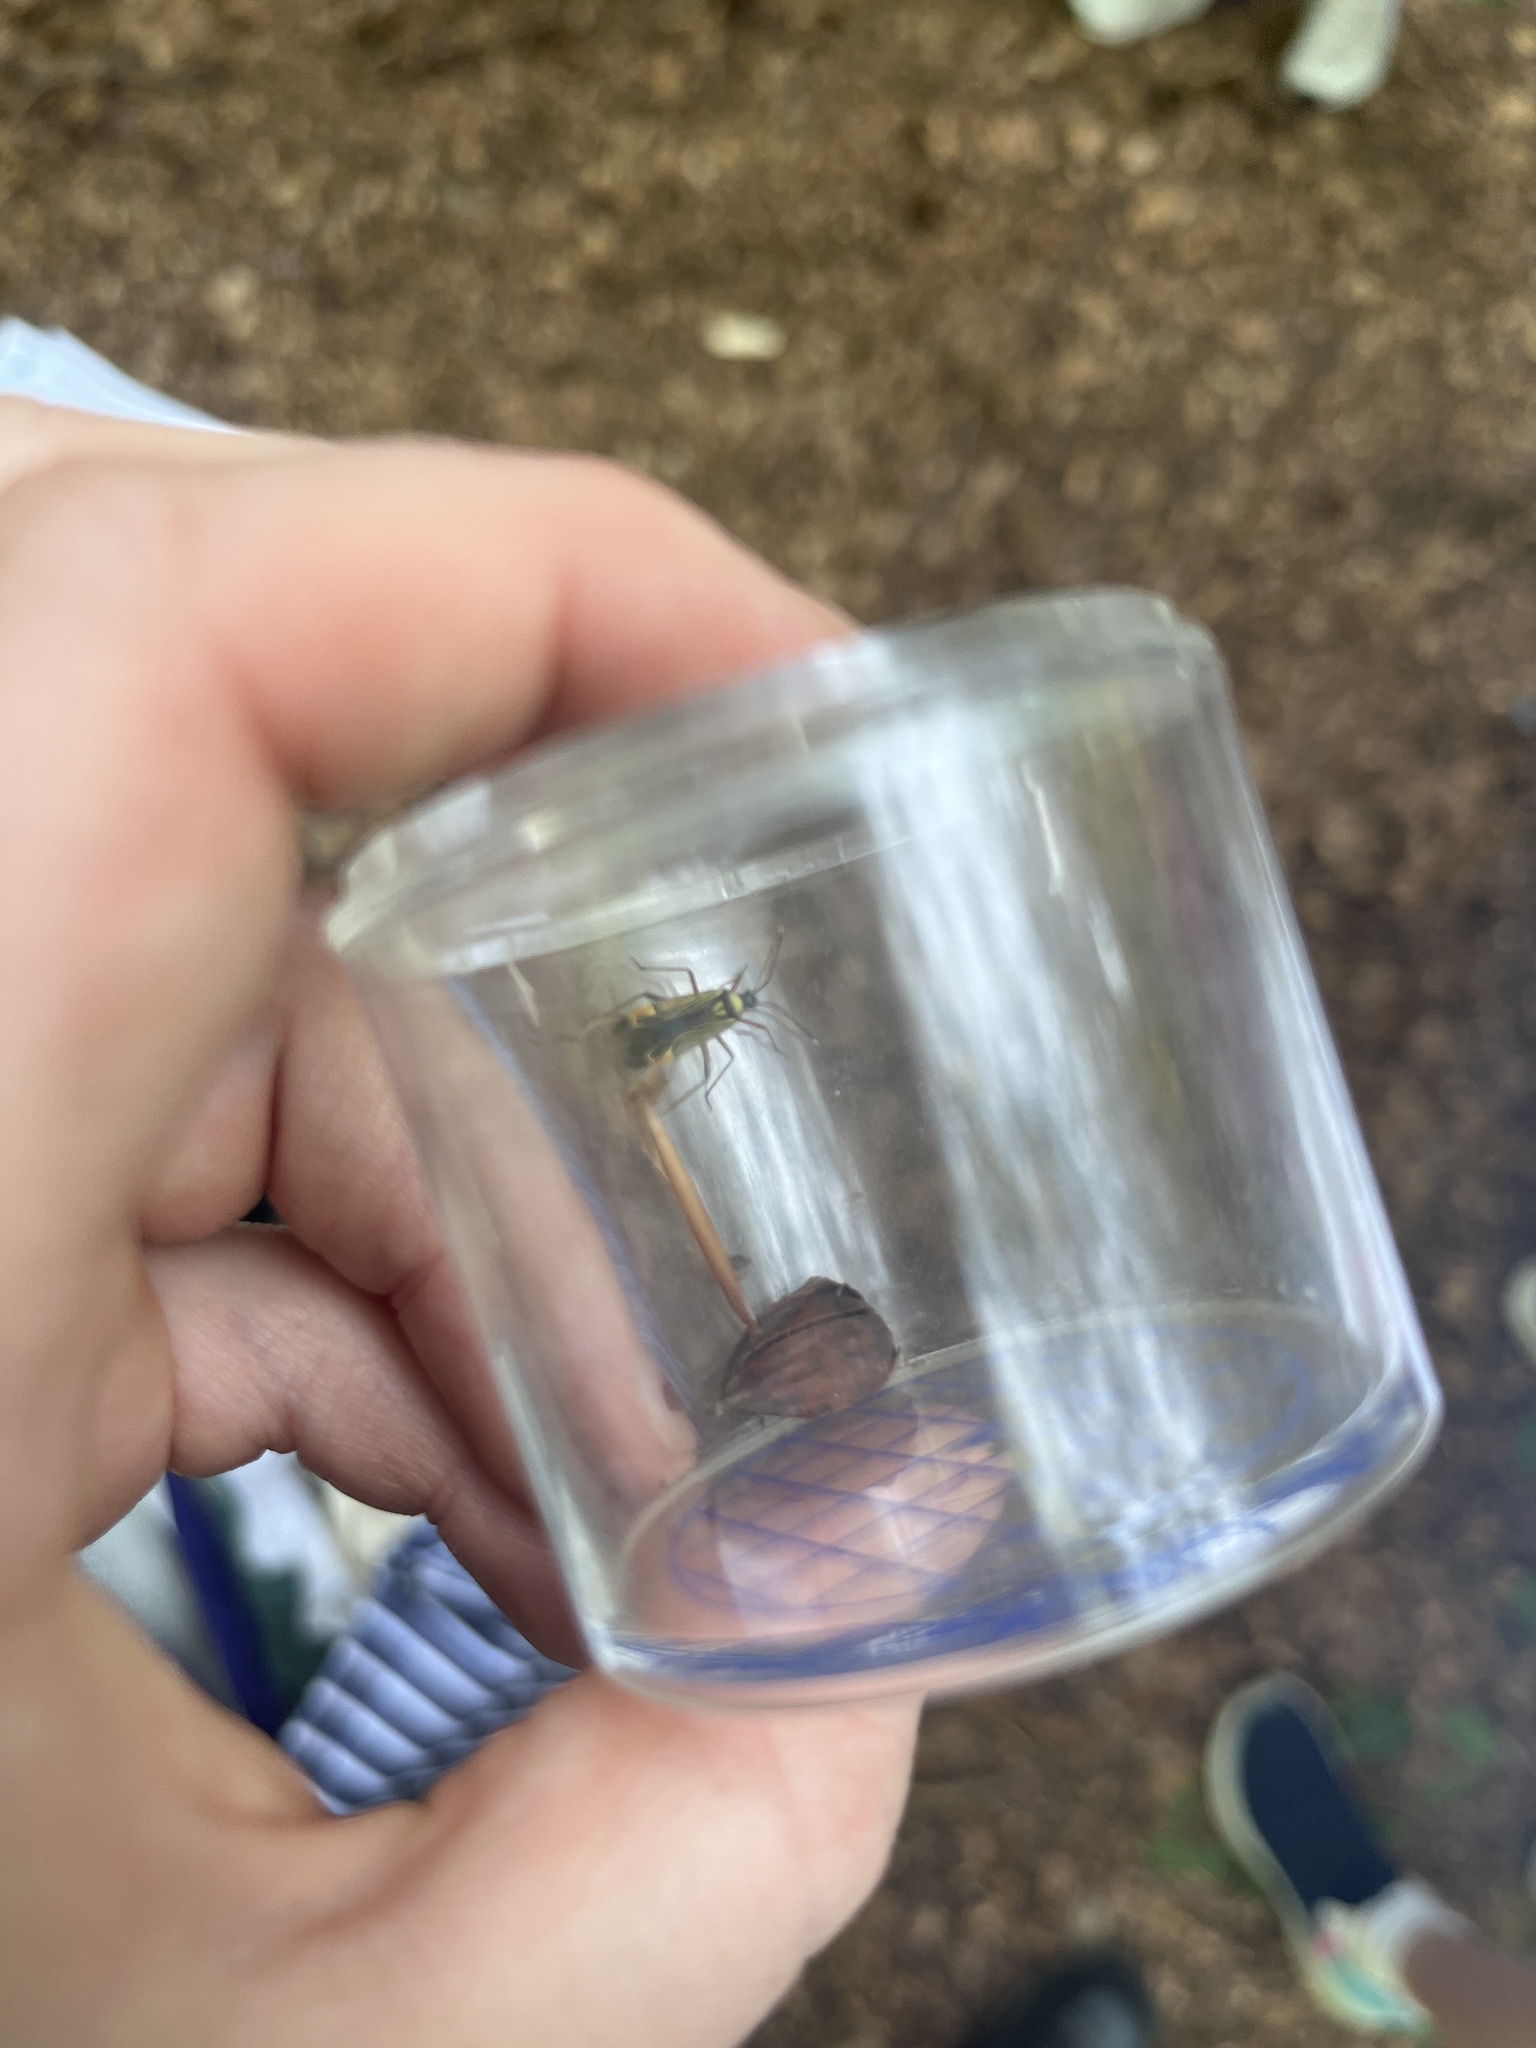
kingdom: Animalia
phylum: Arthropoda
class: Insecta
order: Hemiptera
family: Miridae
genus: Miris
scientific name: Miris striatus
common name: Fine streaked bugkin
